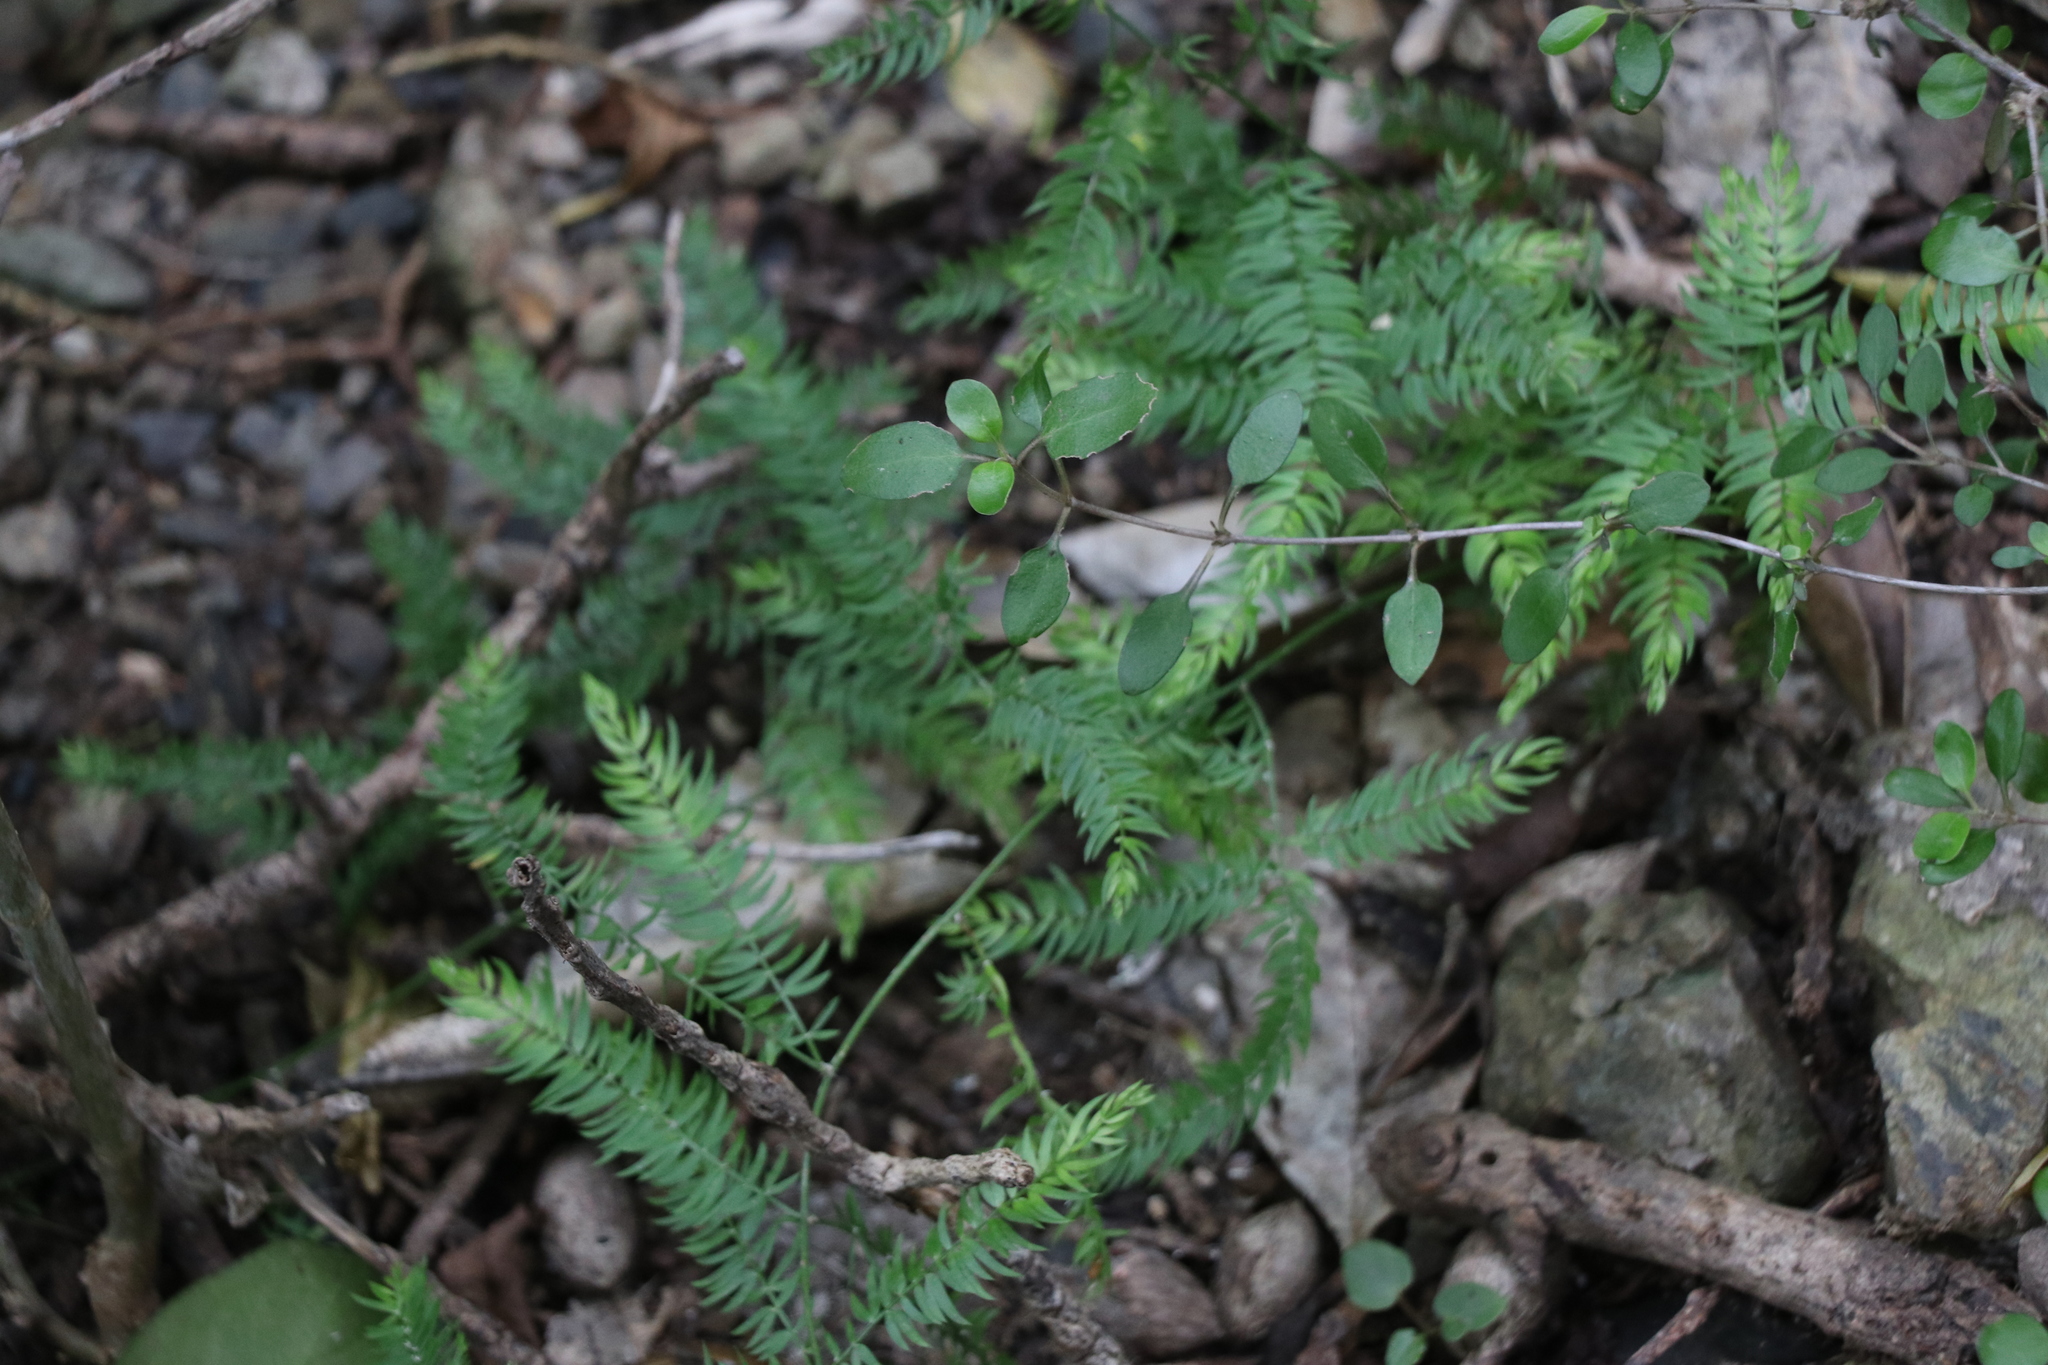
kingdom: Plantae
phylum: Tracheophyta
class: Liliopsida
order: Asparagales
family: Asparagaceae
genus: Asparagus
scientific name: Asparagus scandens
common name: Asparagus-fern
